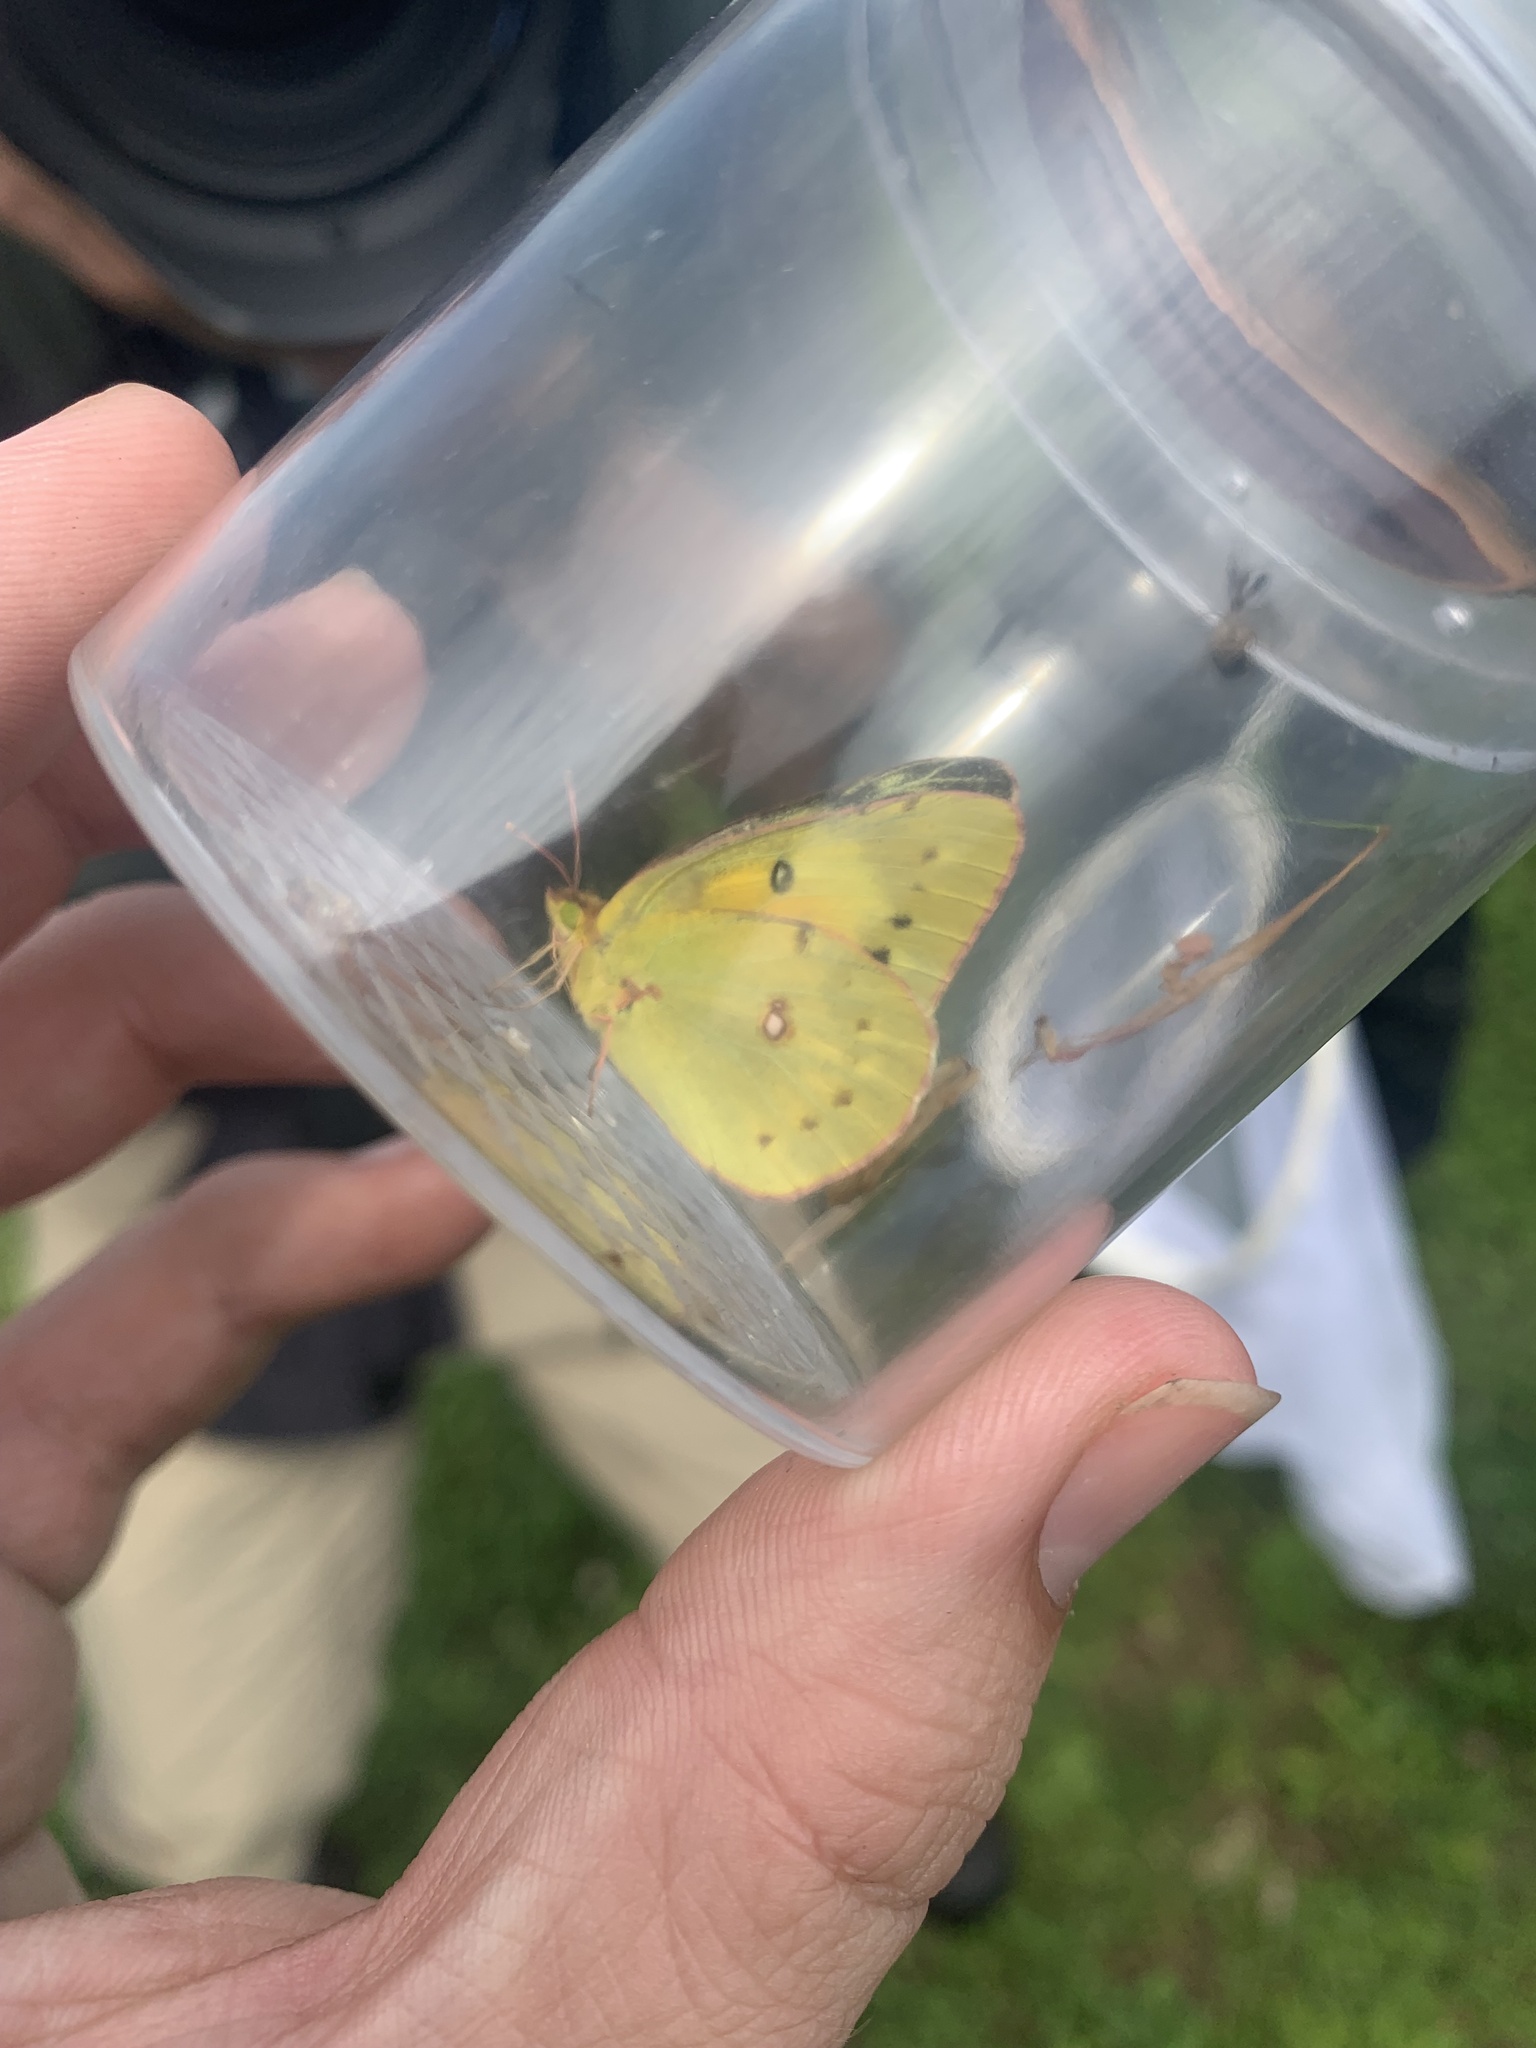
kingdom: Animalia
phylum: Arthropoda
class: Insecta
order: Lepidoptera
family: Pieridae
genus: Colias
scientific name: Colias eurytheme
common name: Alfalfa butterfly
